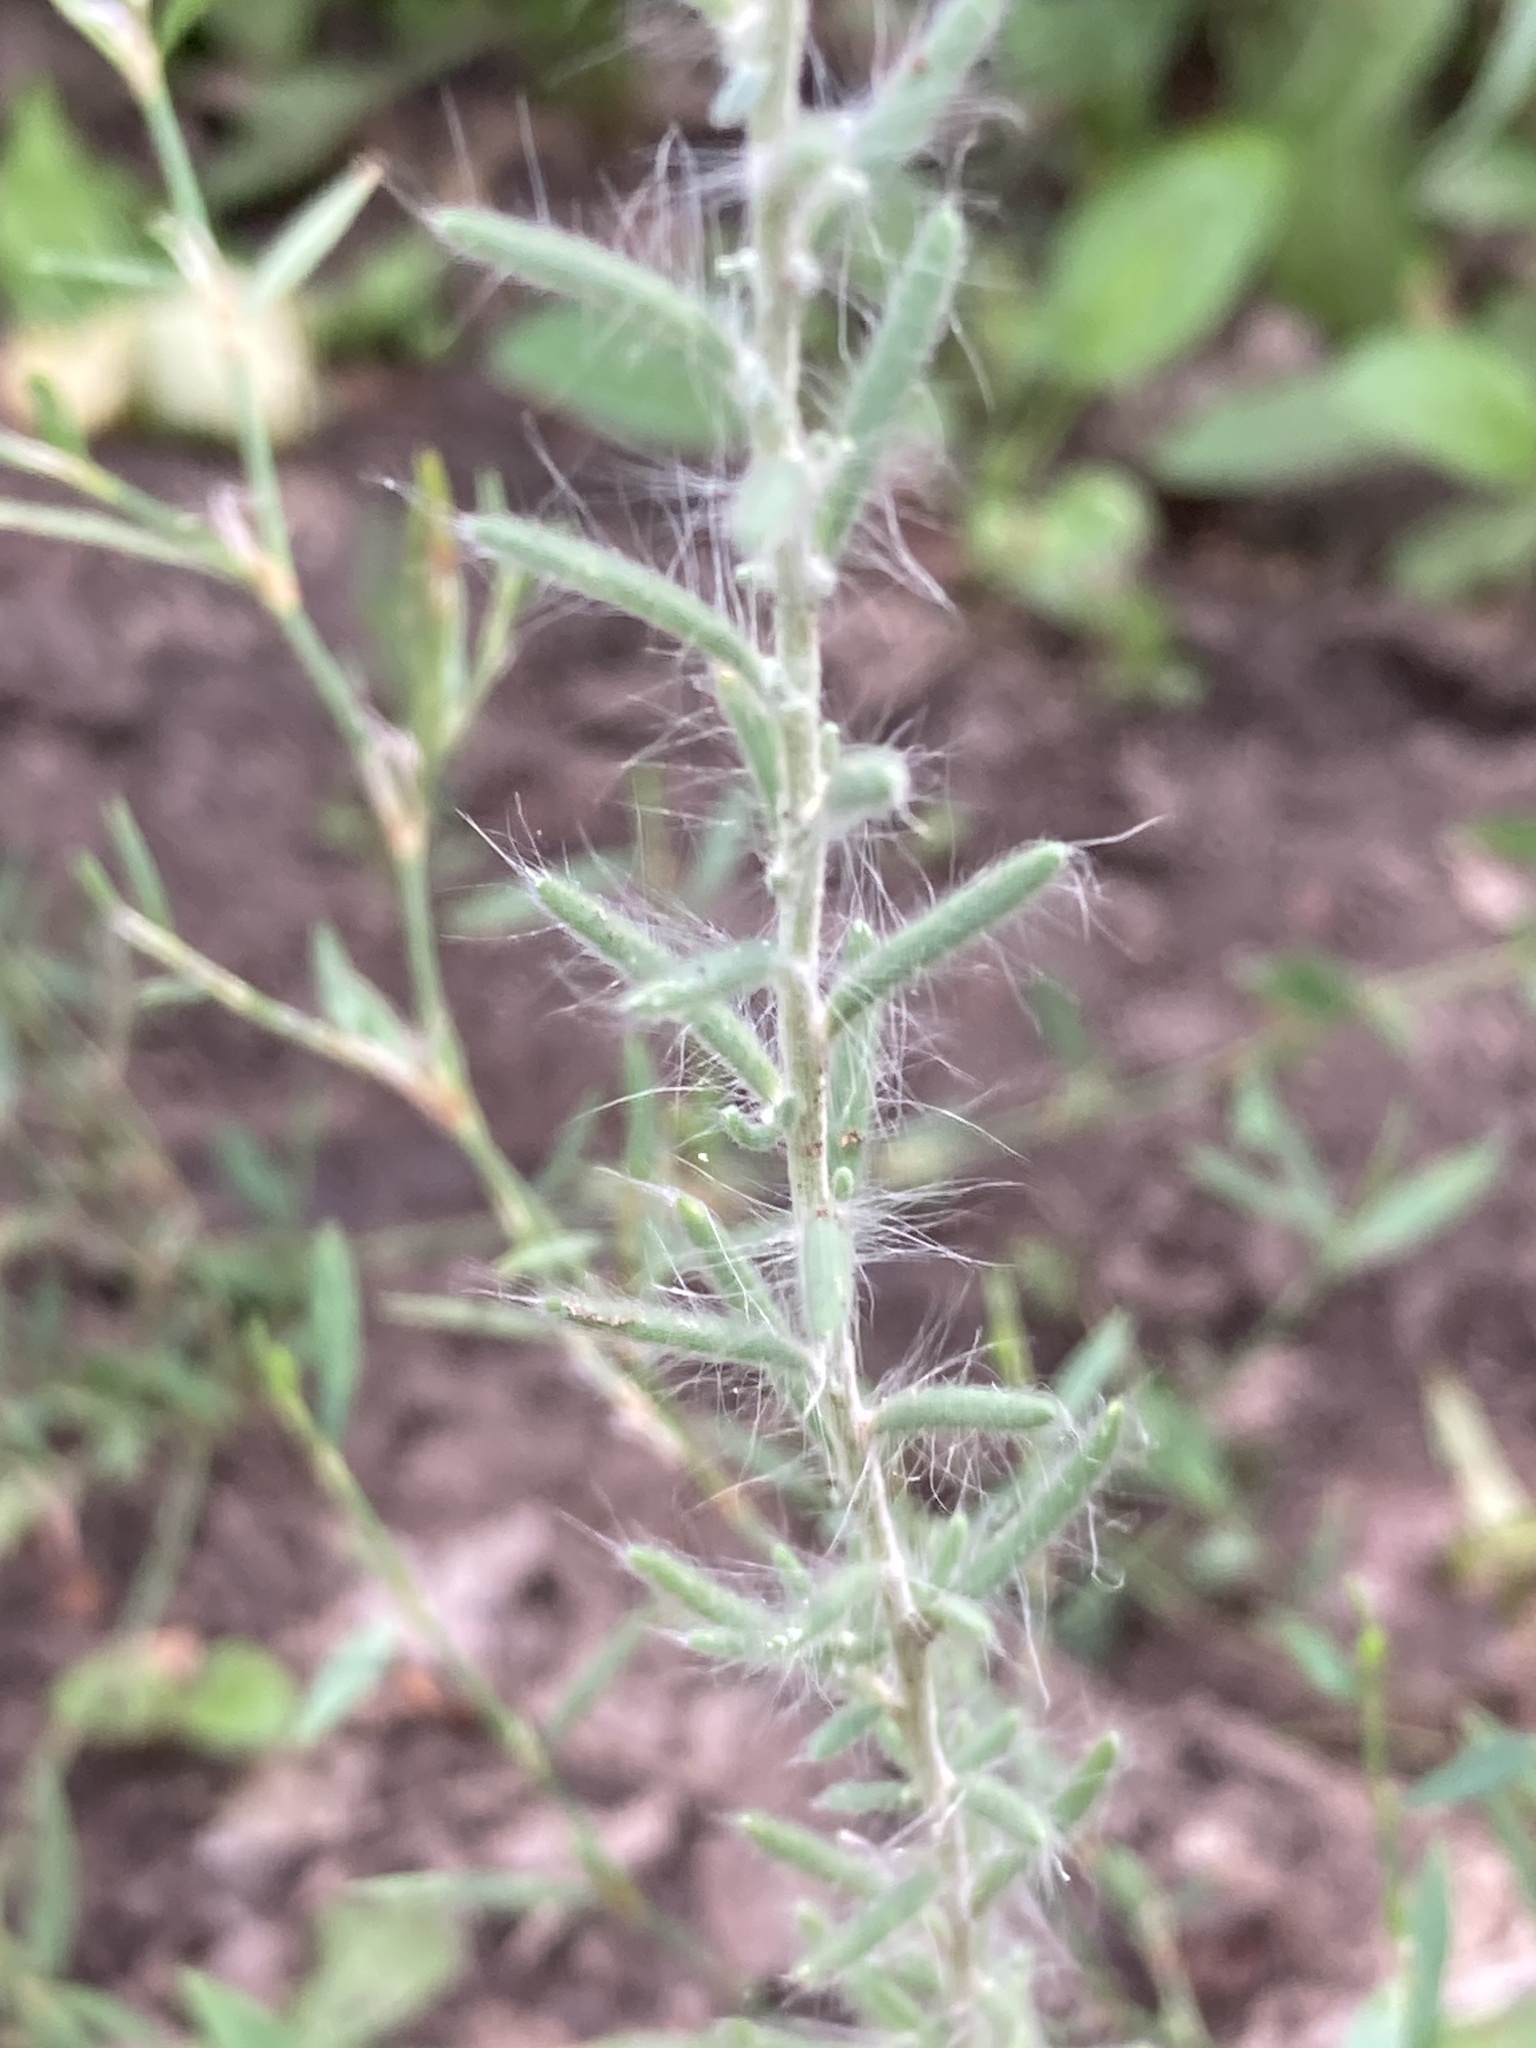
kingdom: Plantae
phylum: Tracheophyta
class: Magnoliopsida
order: Caryophyllales
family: Amaranthaceae
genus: Sedobassia
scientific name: Sedobassia sedoides
